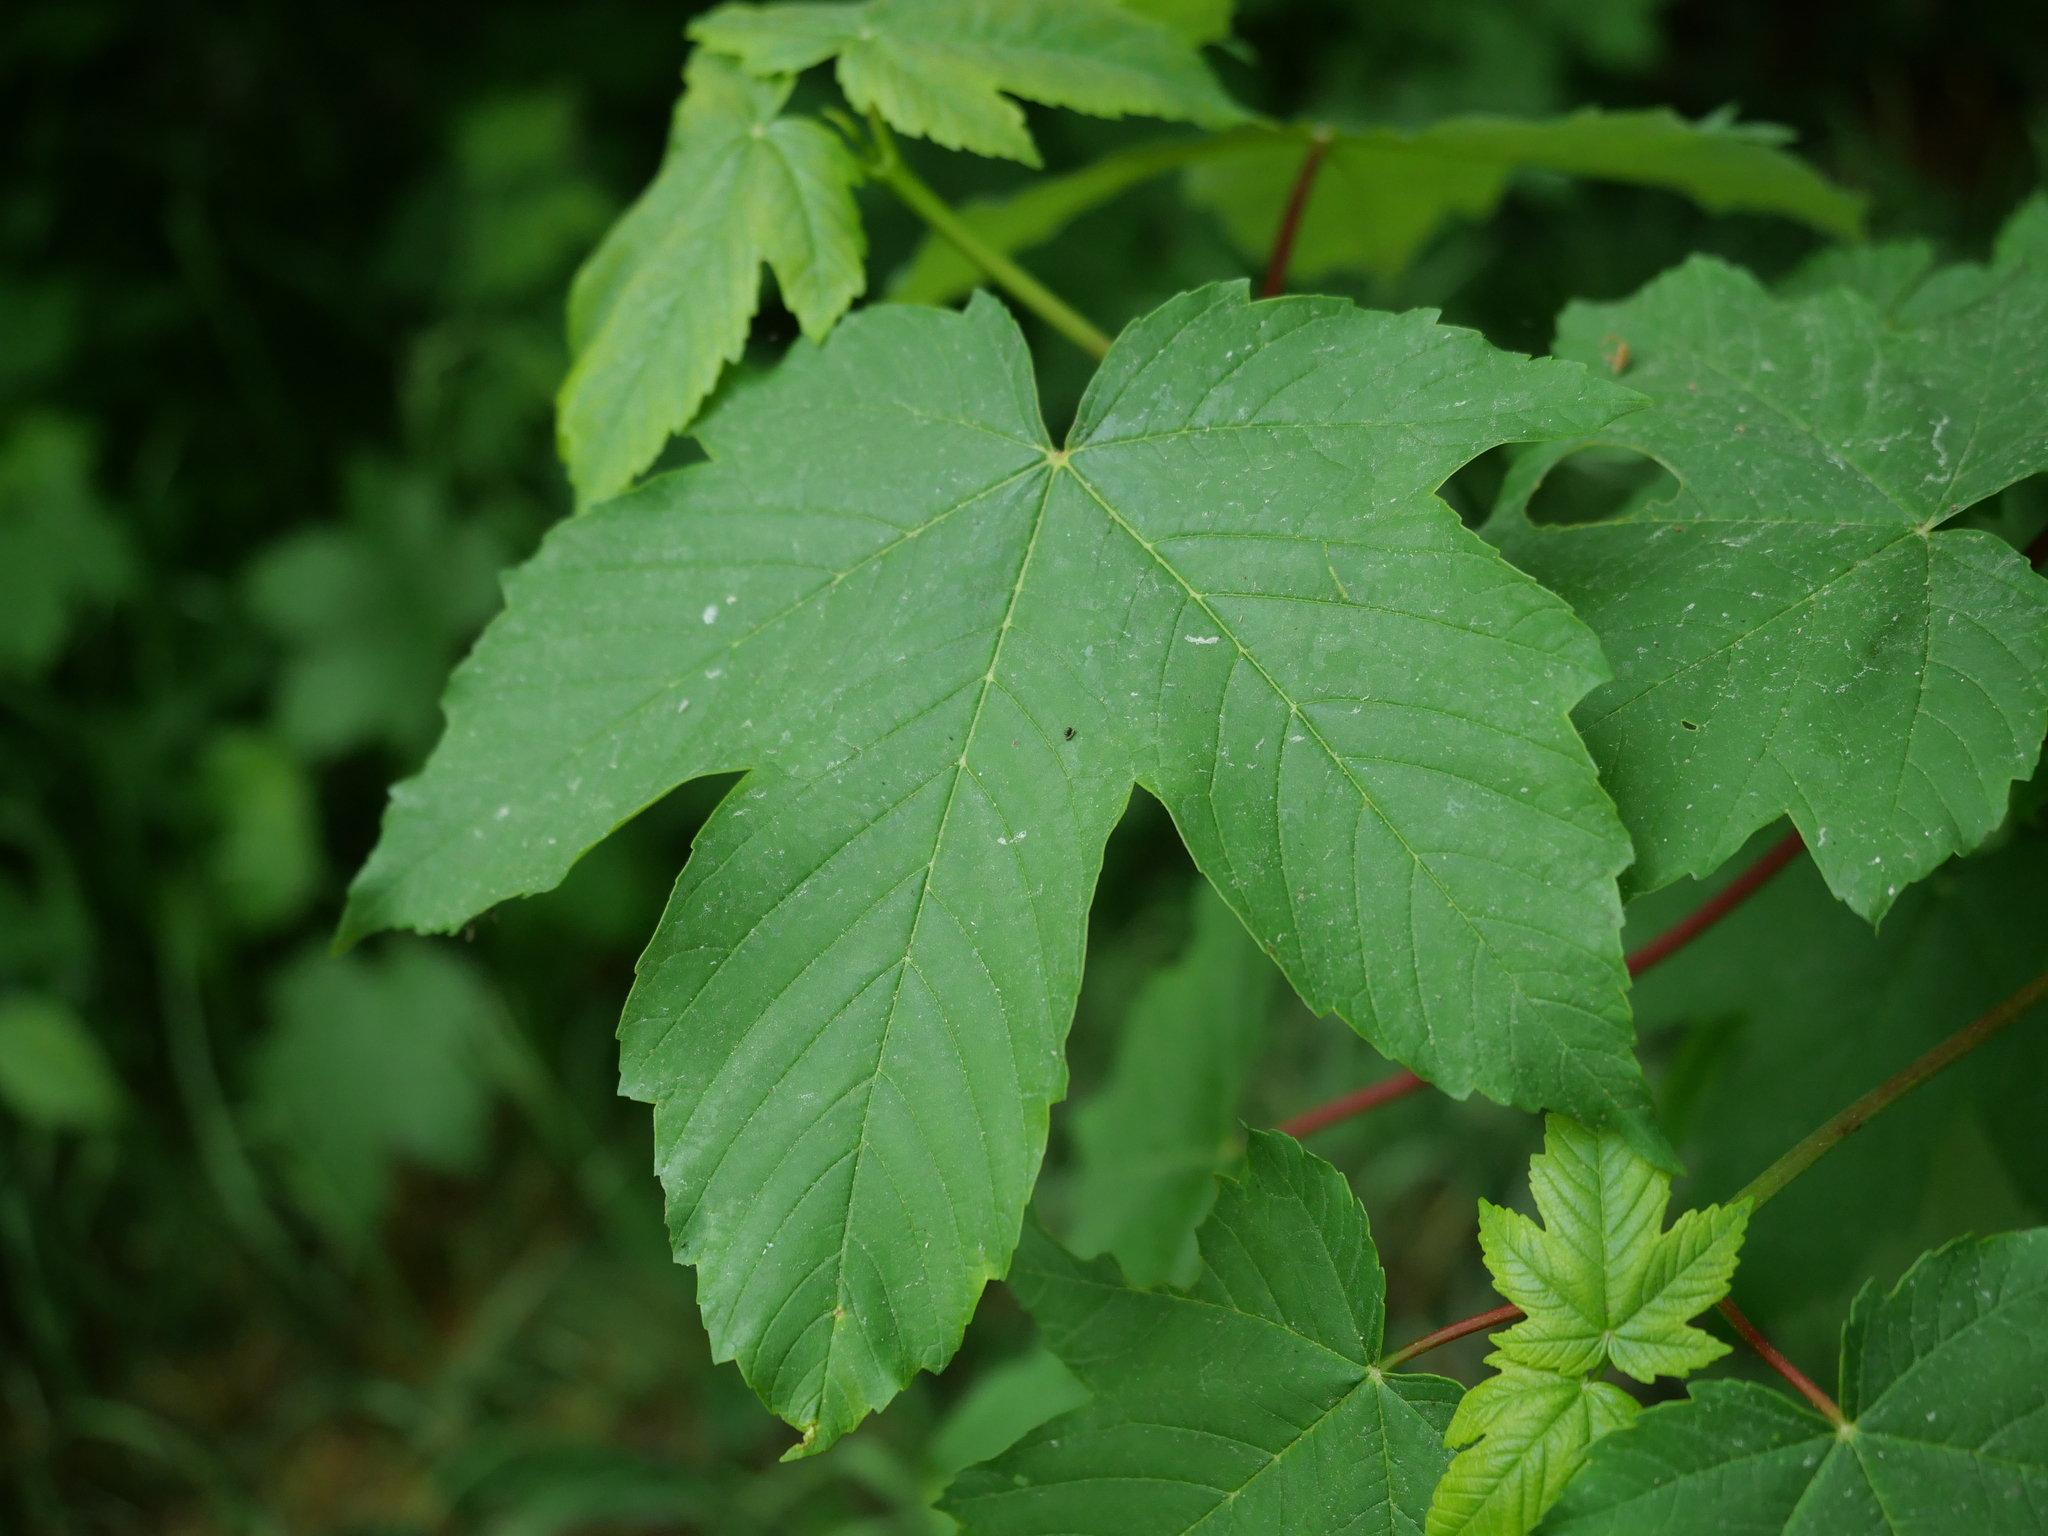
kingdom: Plantae
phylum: Tracheophyta
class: Magnoliopsida
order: Sapindales
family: Sapindaceae
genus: Acer
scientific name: Acer pseudoplatanus
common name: Sycamore
